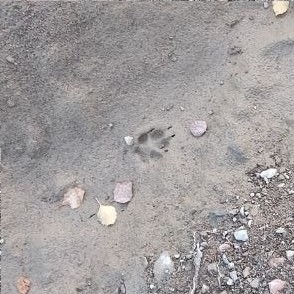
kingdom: Animalia
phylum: Chordata
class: Mammalia
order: Carnivora
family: Canidae
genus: Vulpes
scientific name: Vulpes vulpes
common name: Red fox
